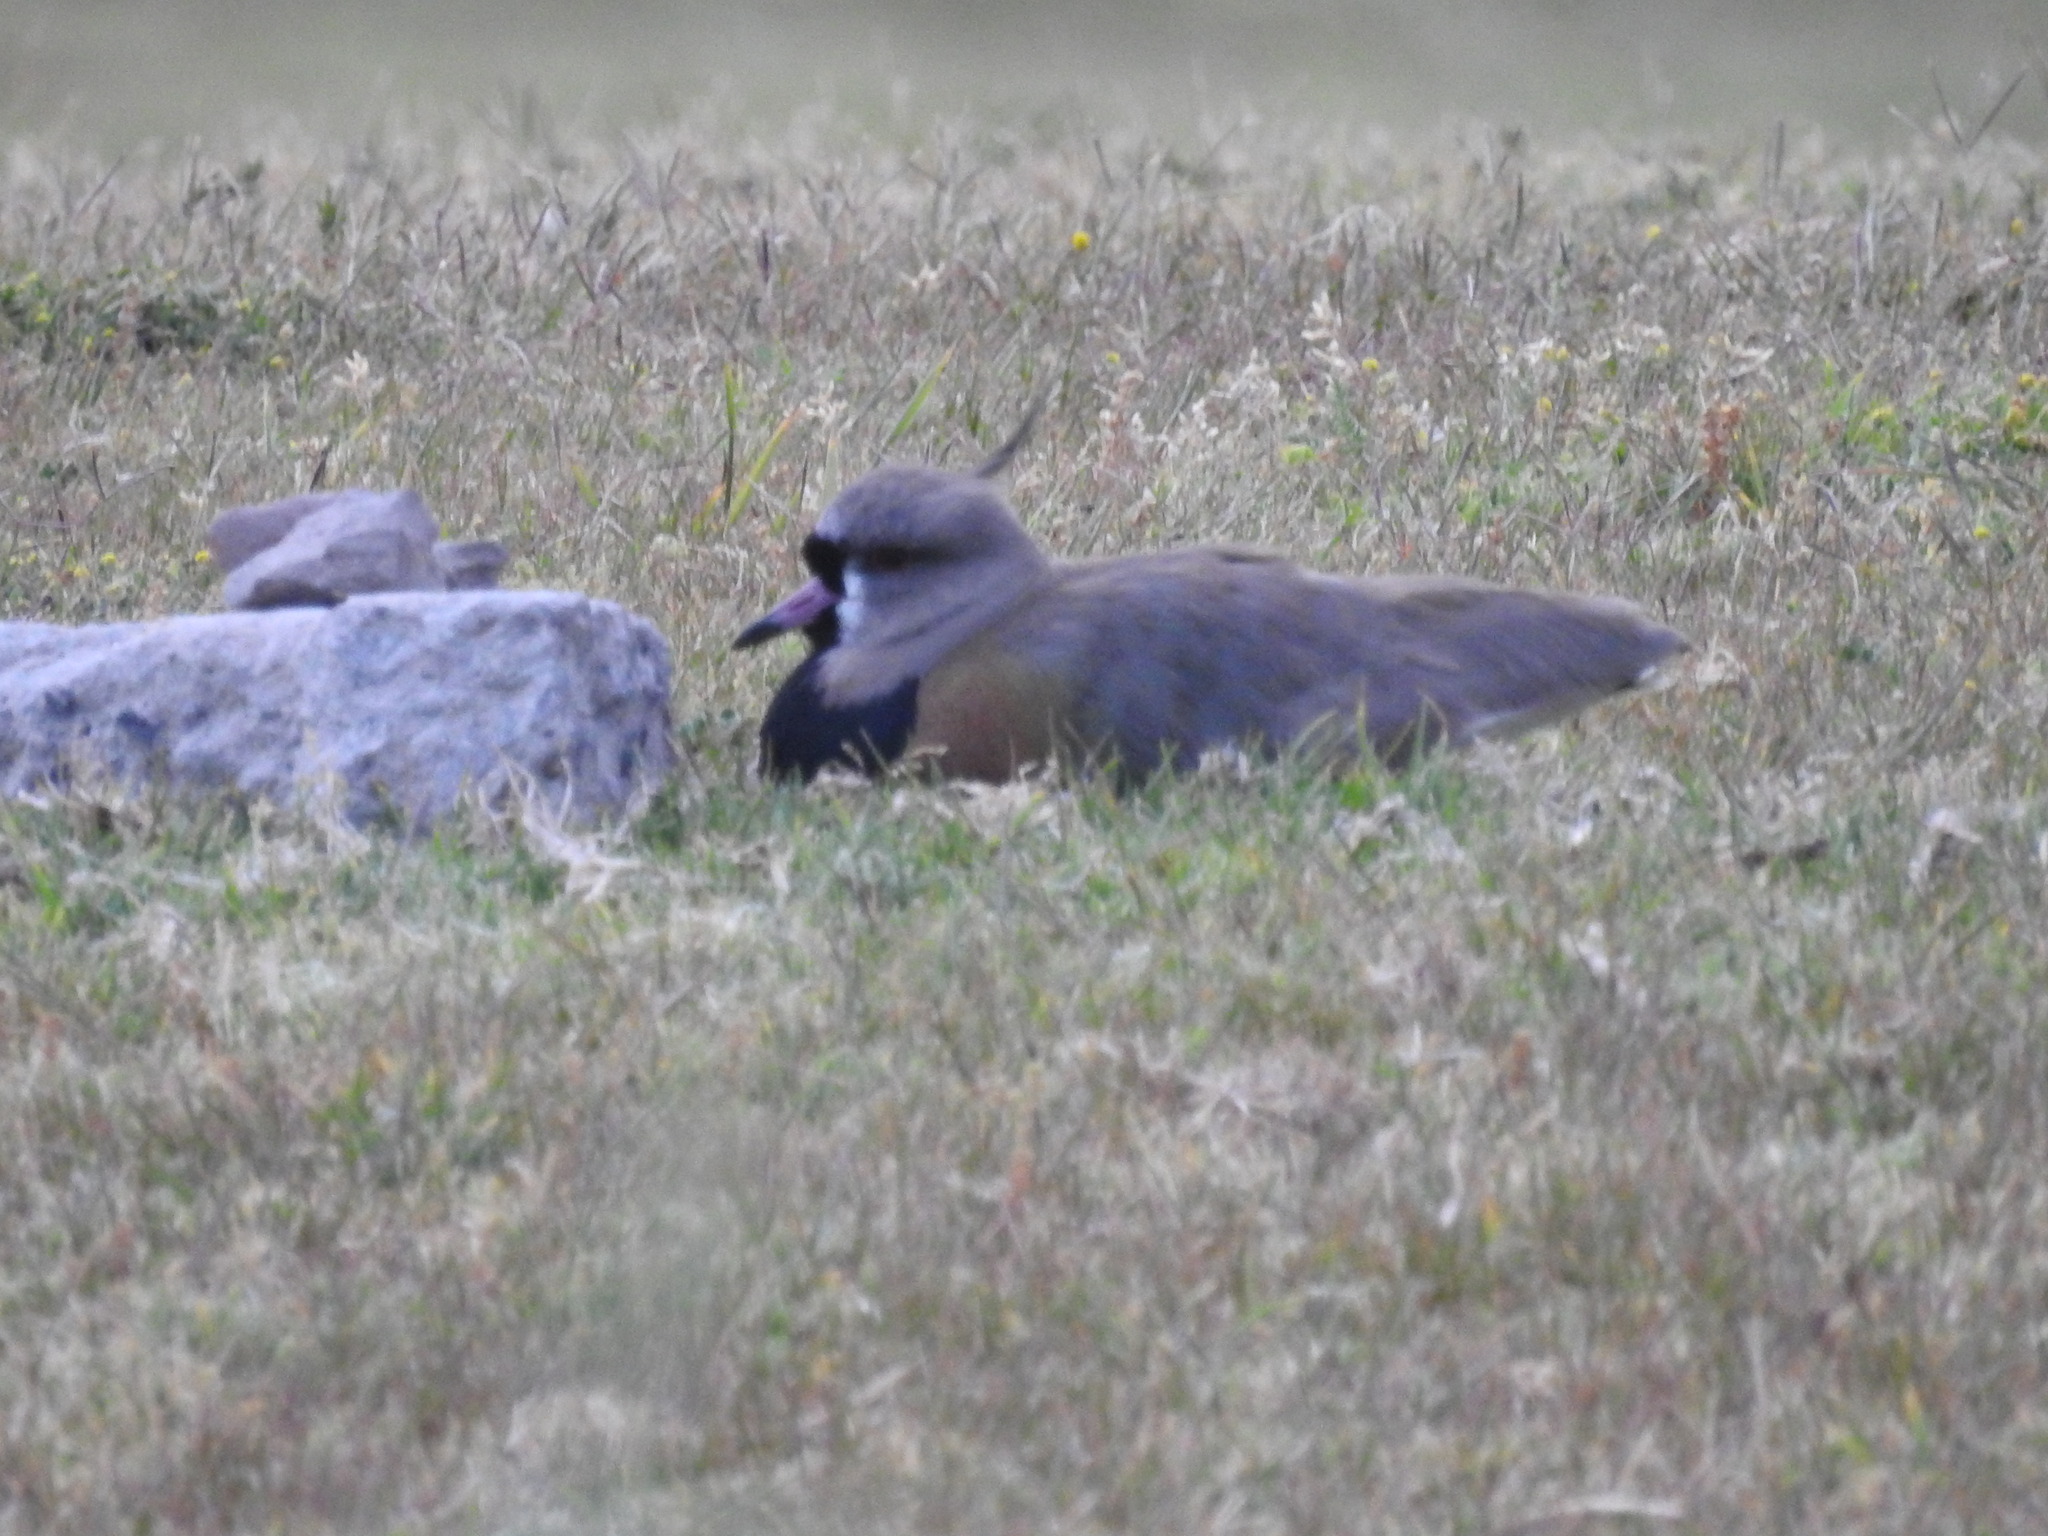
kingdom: Animalia
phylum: Chordata
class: Aves
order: Charadriiformes
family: Charadriidae
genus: Vanellus
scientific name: Vanellus chilensis
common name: Southern lapwing
